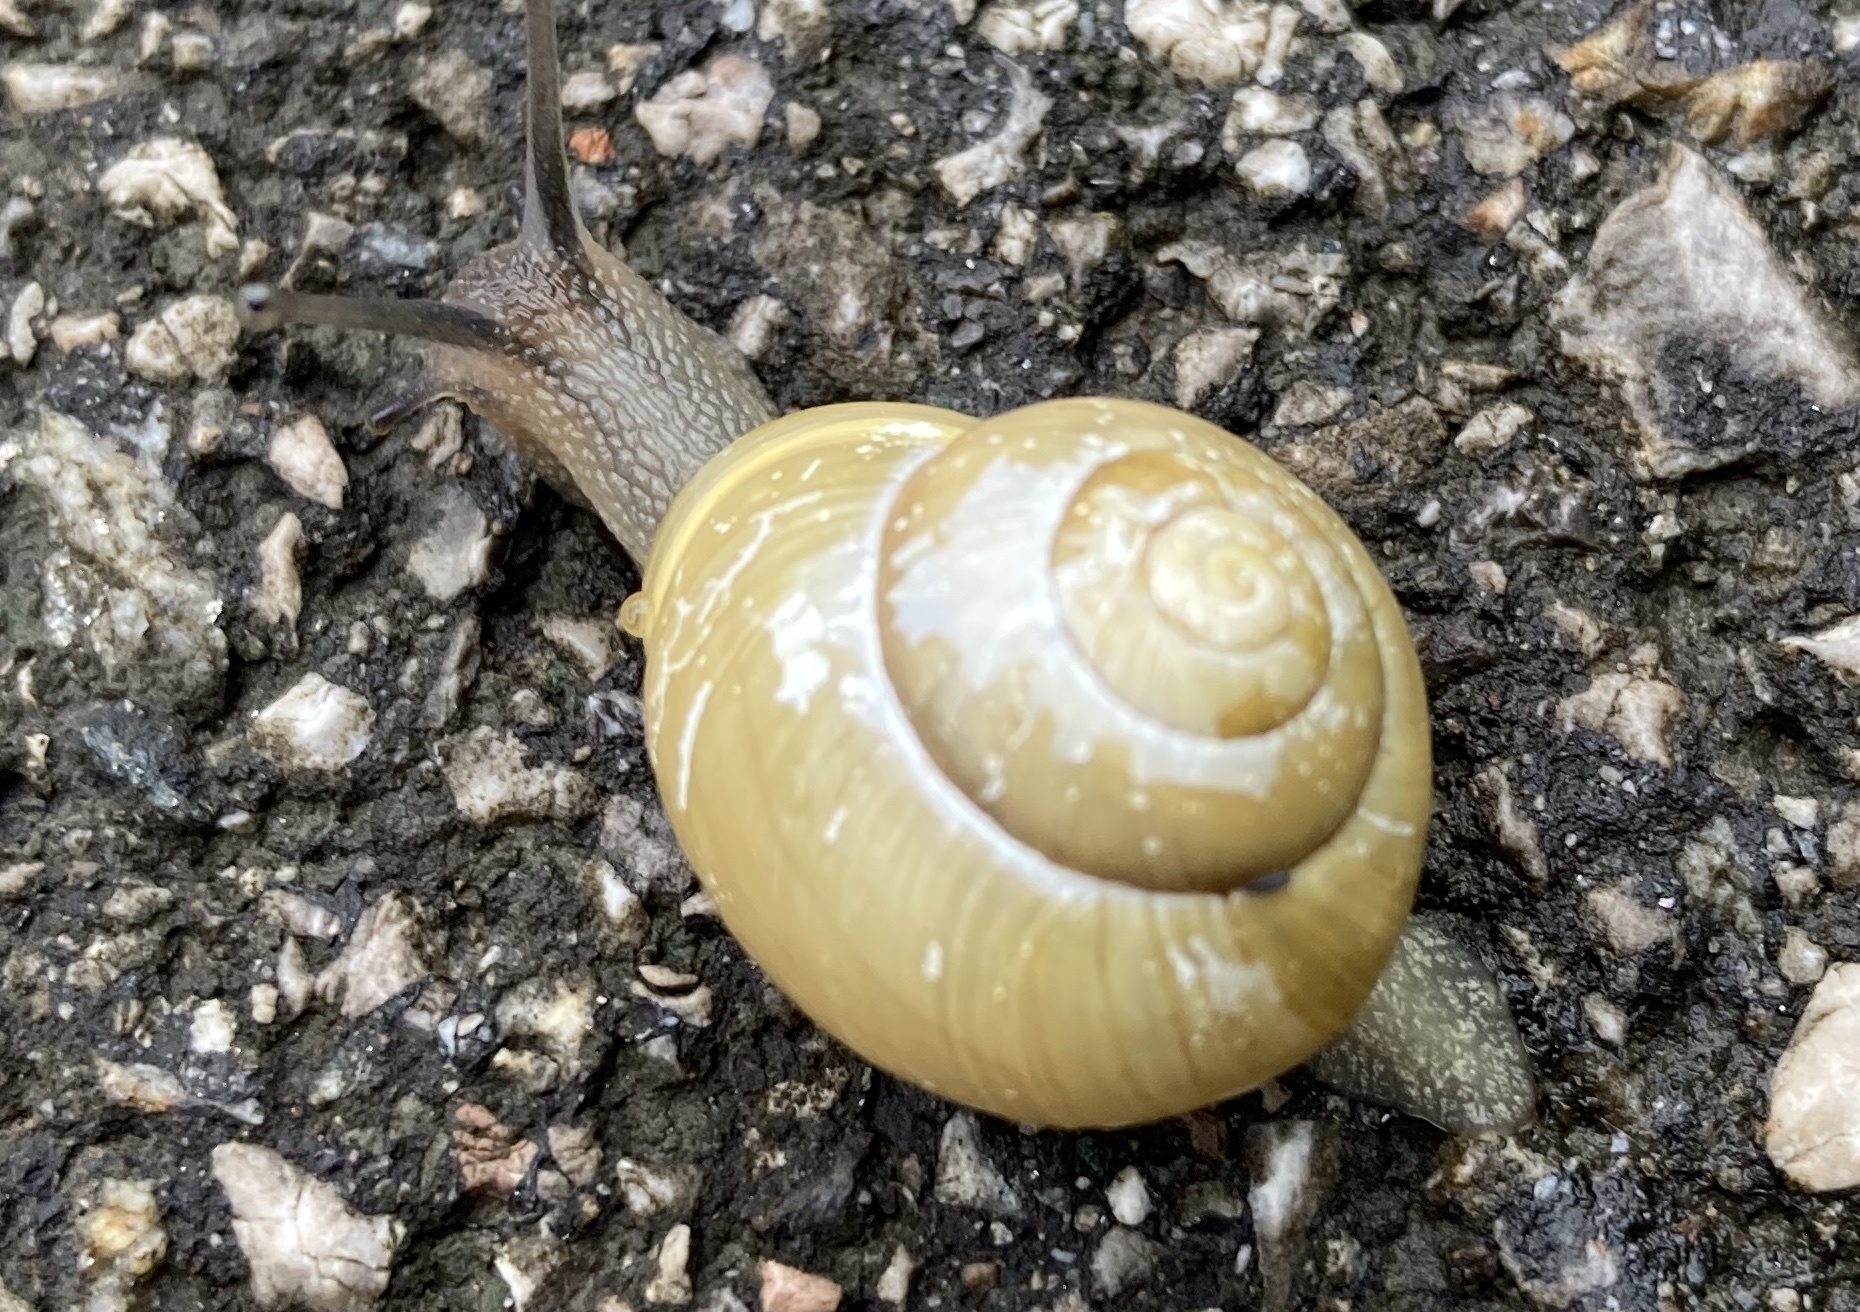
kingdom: Animalia
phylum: Mollusca
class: Gastropoda
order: Stylommatophora
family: Helicidae
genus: Cepaea
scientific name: Cepaea hortensis
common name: White-lip gardensnail
